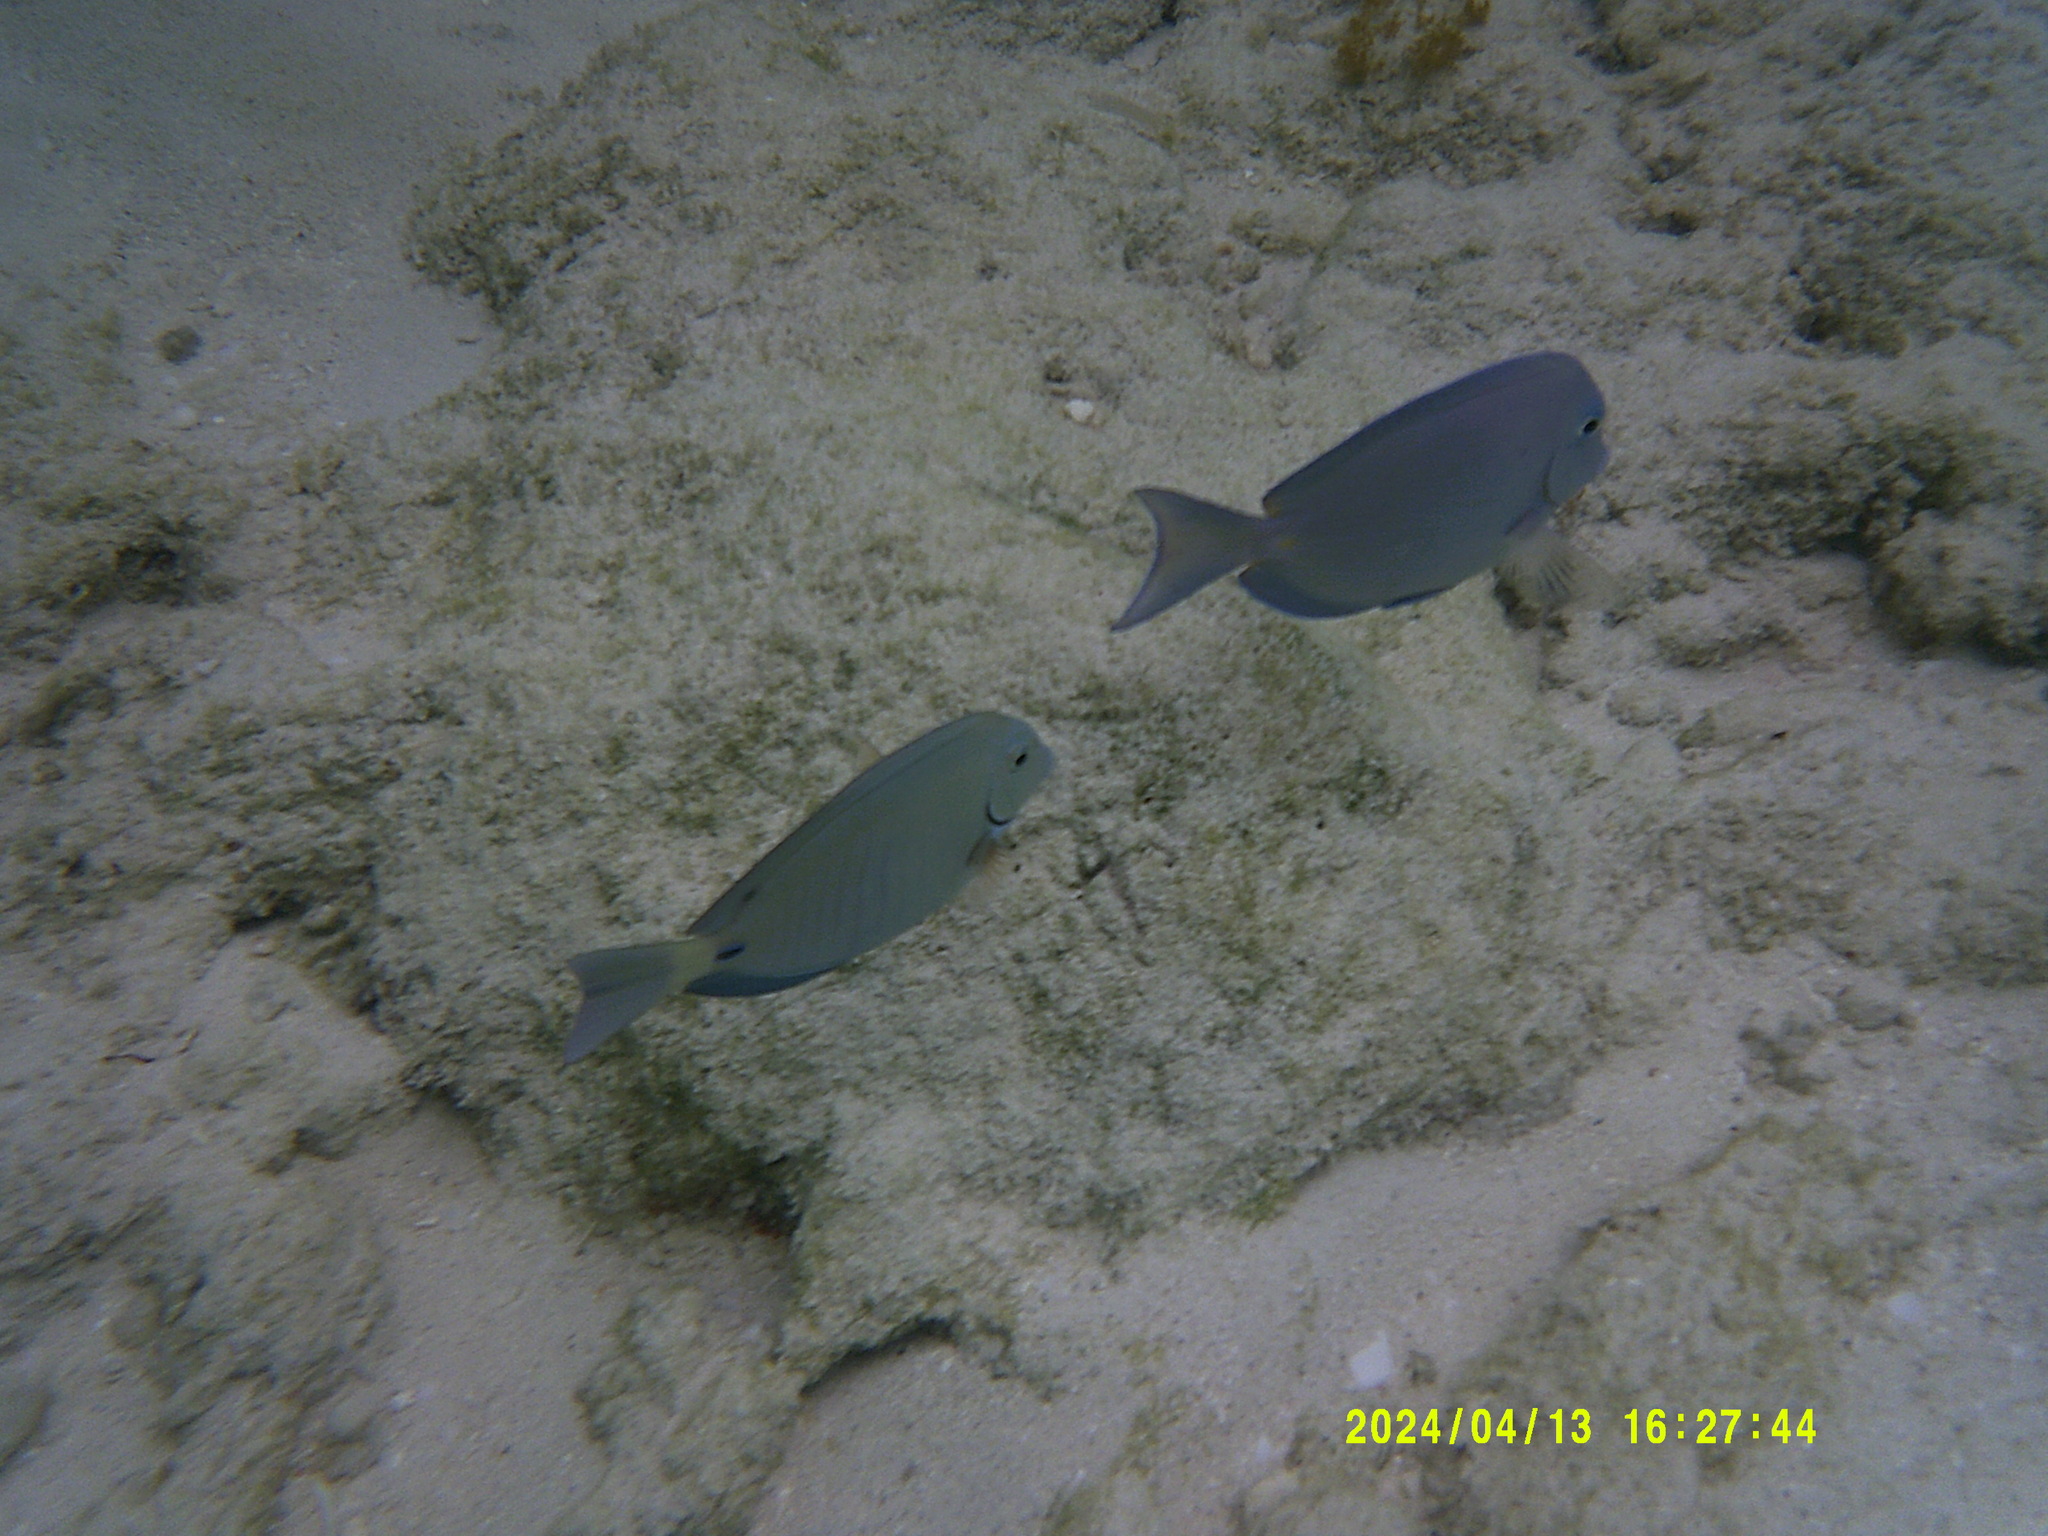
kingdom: Animalia
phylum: Chordata
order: Perciformes
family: Acanthuridae
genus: Acanthurus
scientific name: Acanthurus chirurgus
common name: Doctorfish
